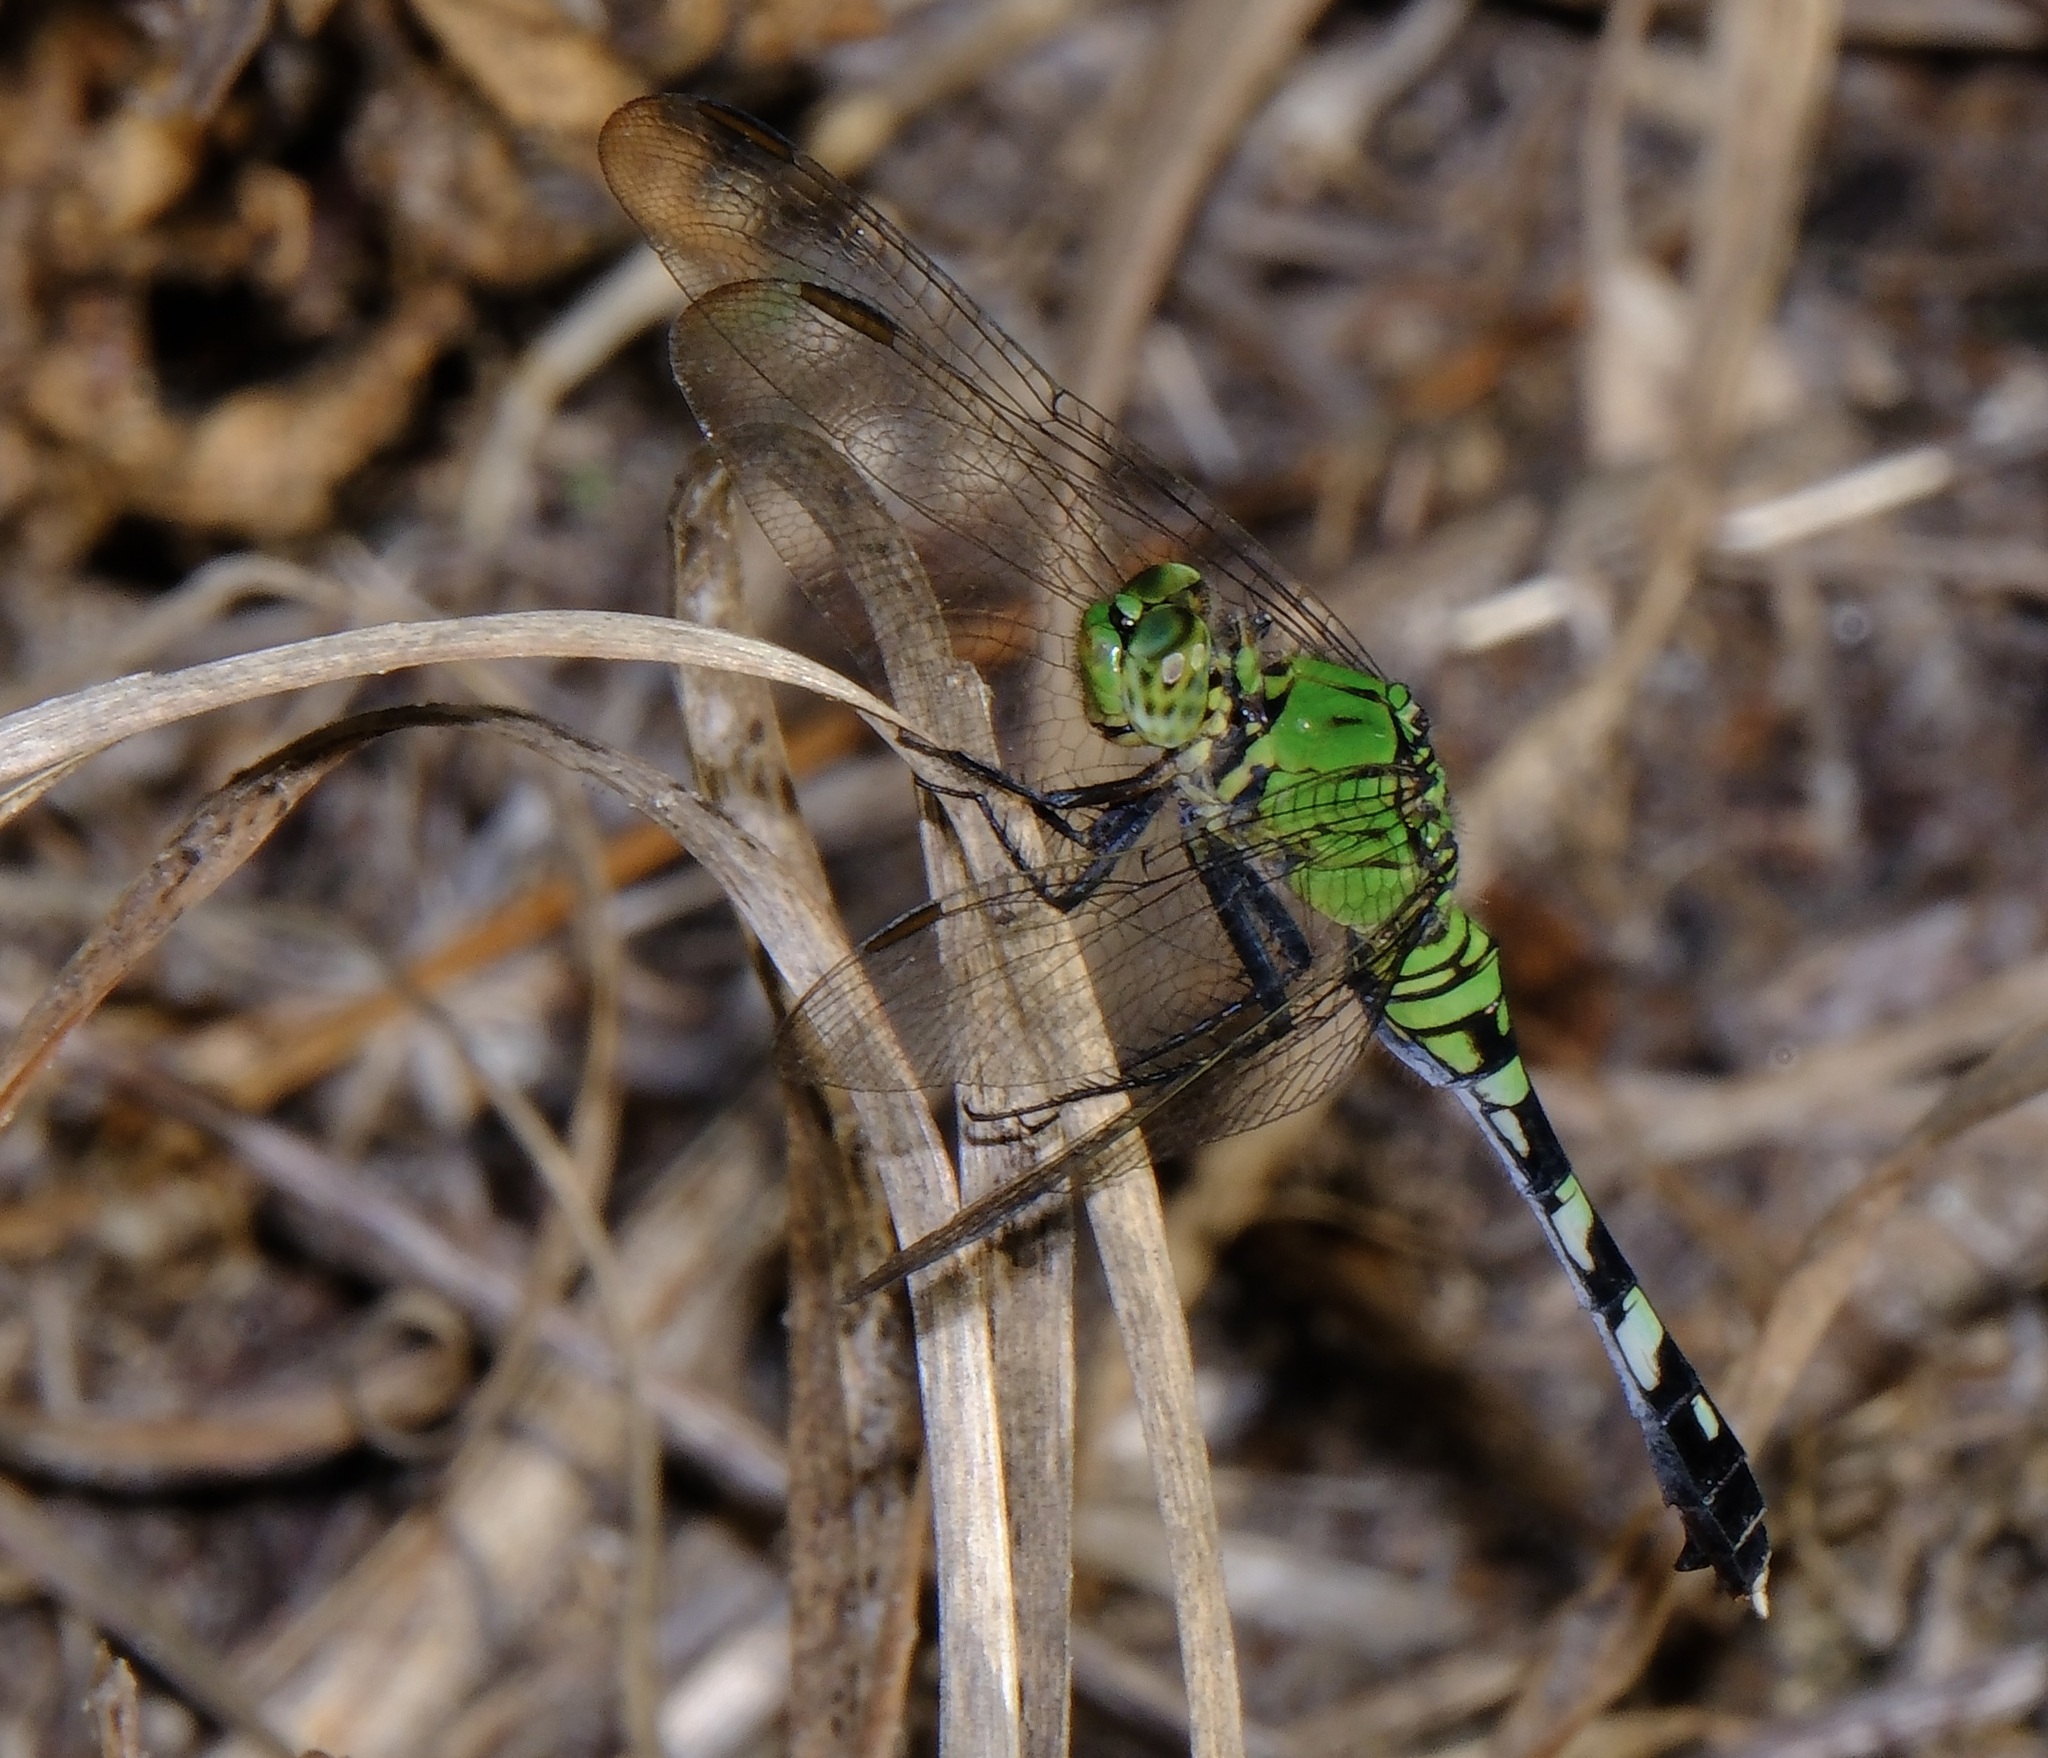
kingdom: Animalia
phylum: Arthropoda
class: Insecta
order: Odonata
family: Libellulidae
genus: Erythemis
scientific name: Erythemis simplicicollis
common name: Eastern pondhawk
